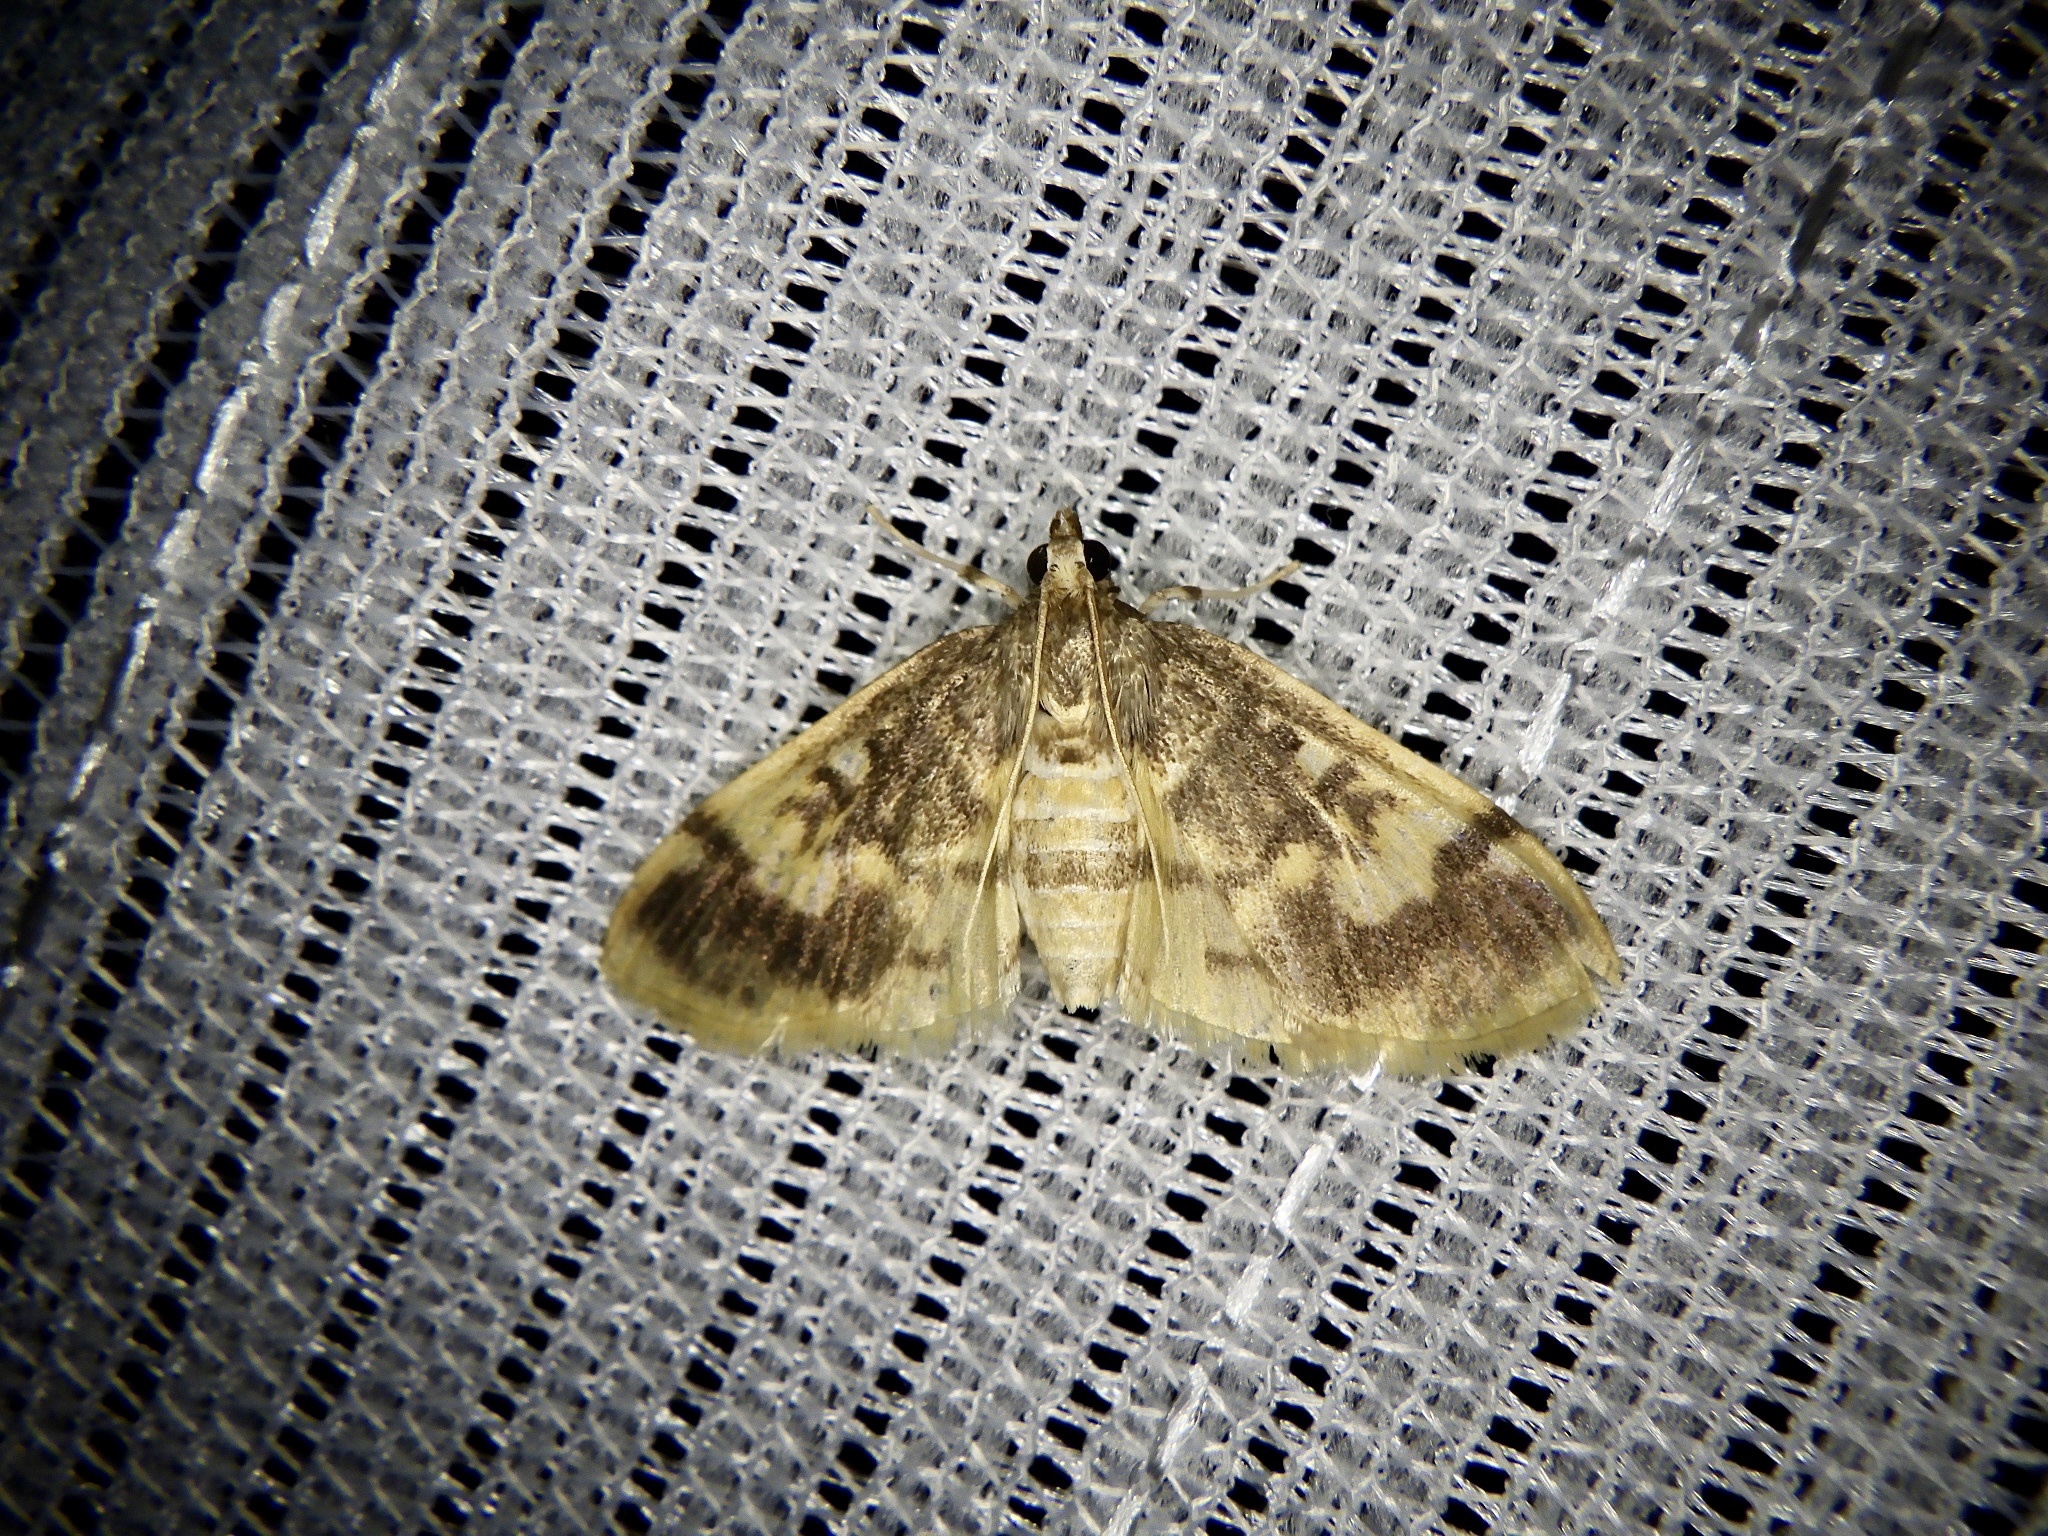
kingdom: Animalia
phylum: Arthropoda
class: Insecta
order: Lepidoptera
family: Crambidae
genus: Pseudebulea
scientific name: Pseudebulea fentoni
